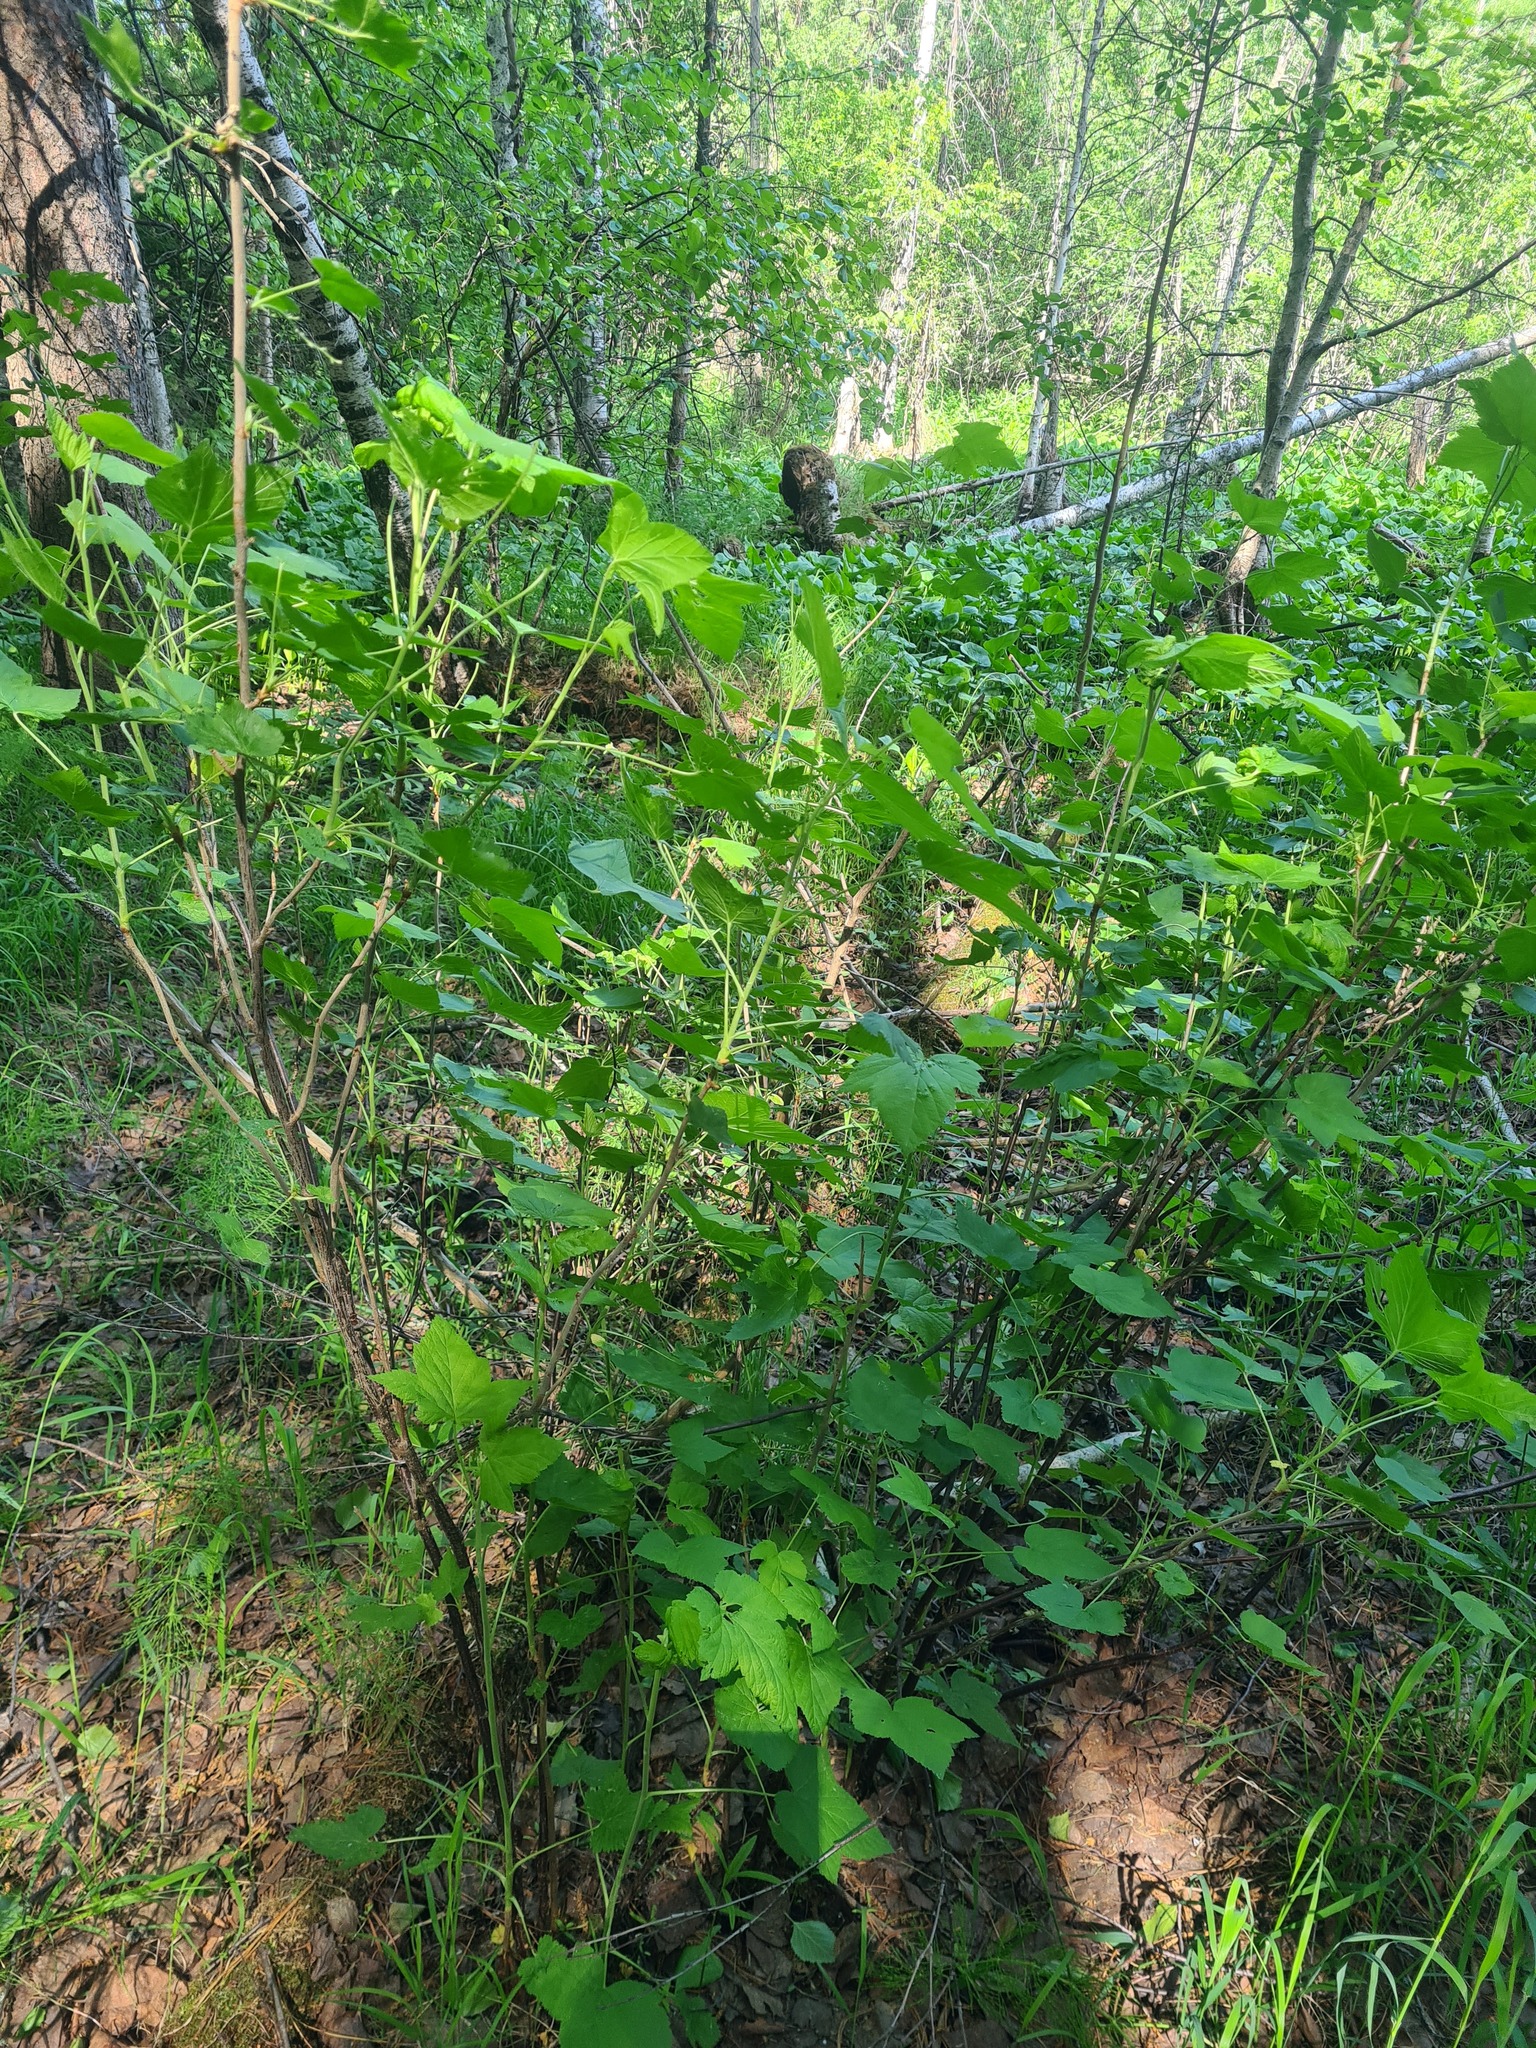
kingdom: Plantae
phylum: Tracheophyta
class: Magnoliopsida
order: Saxifragales
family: Grossulariaceae
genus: Ribes
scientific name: Ribes nigrum
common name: Black currant
